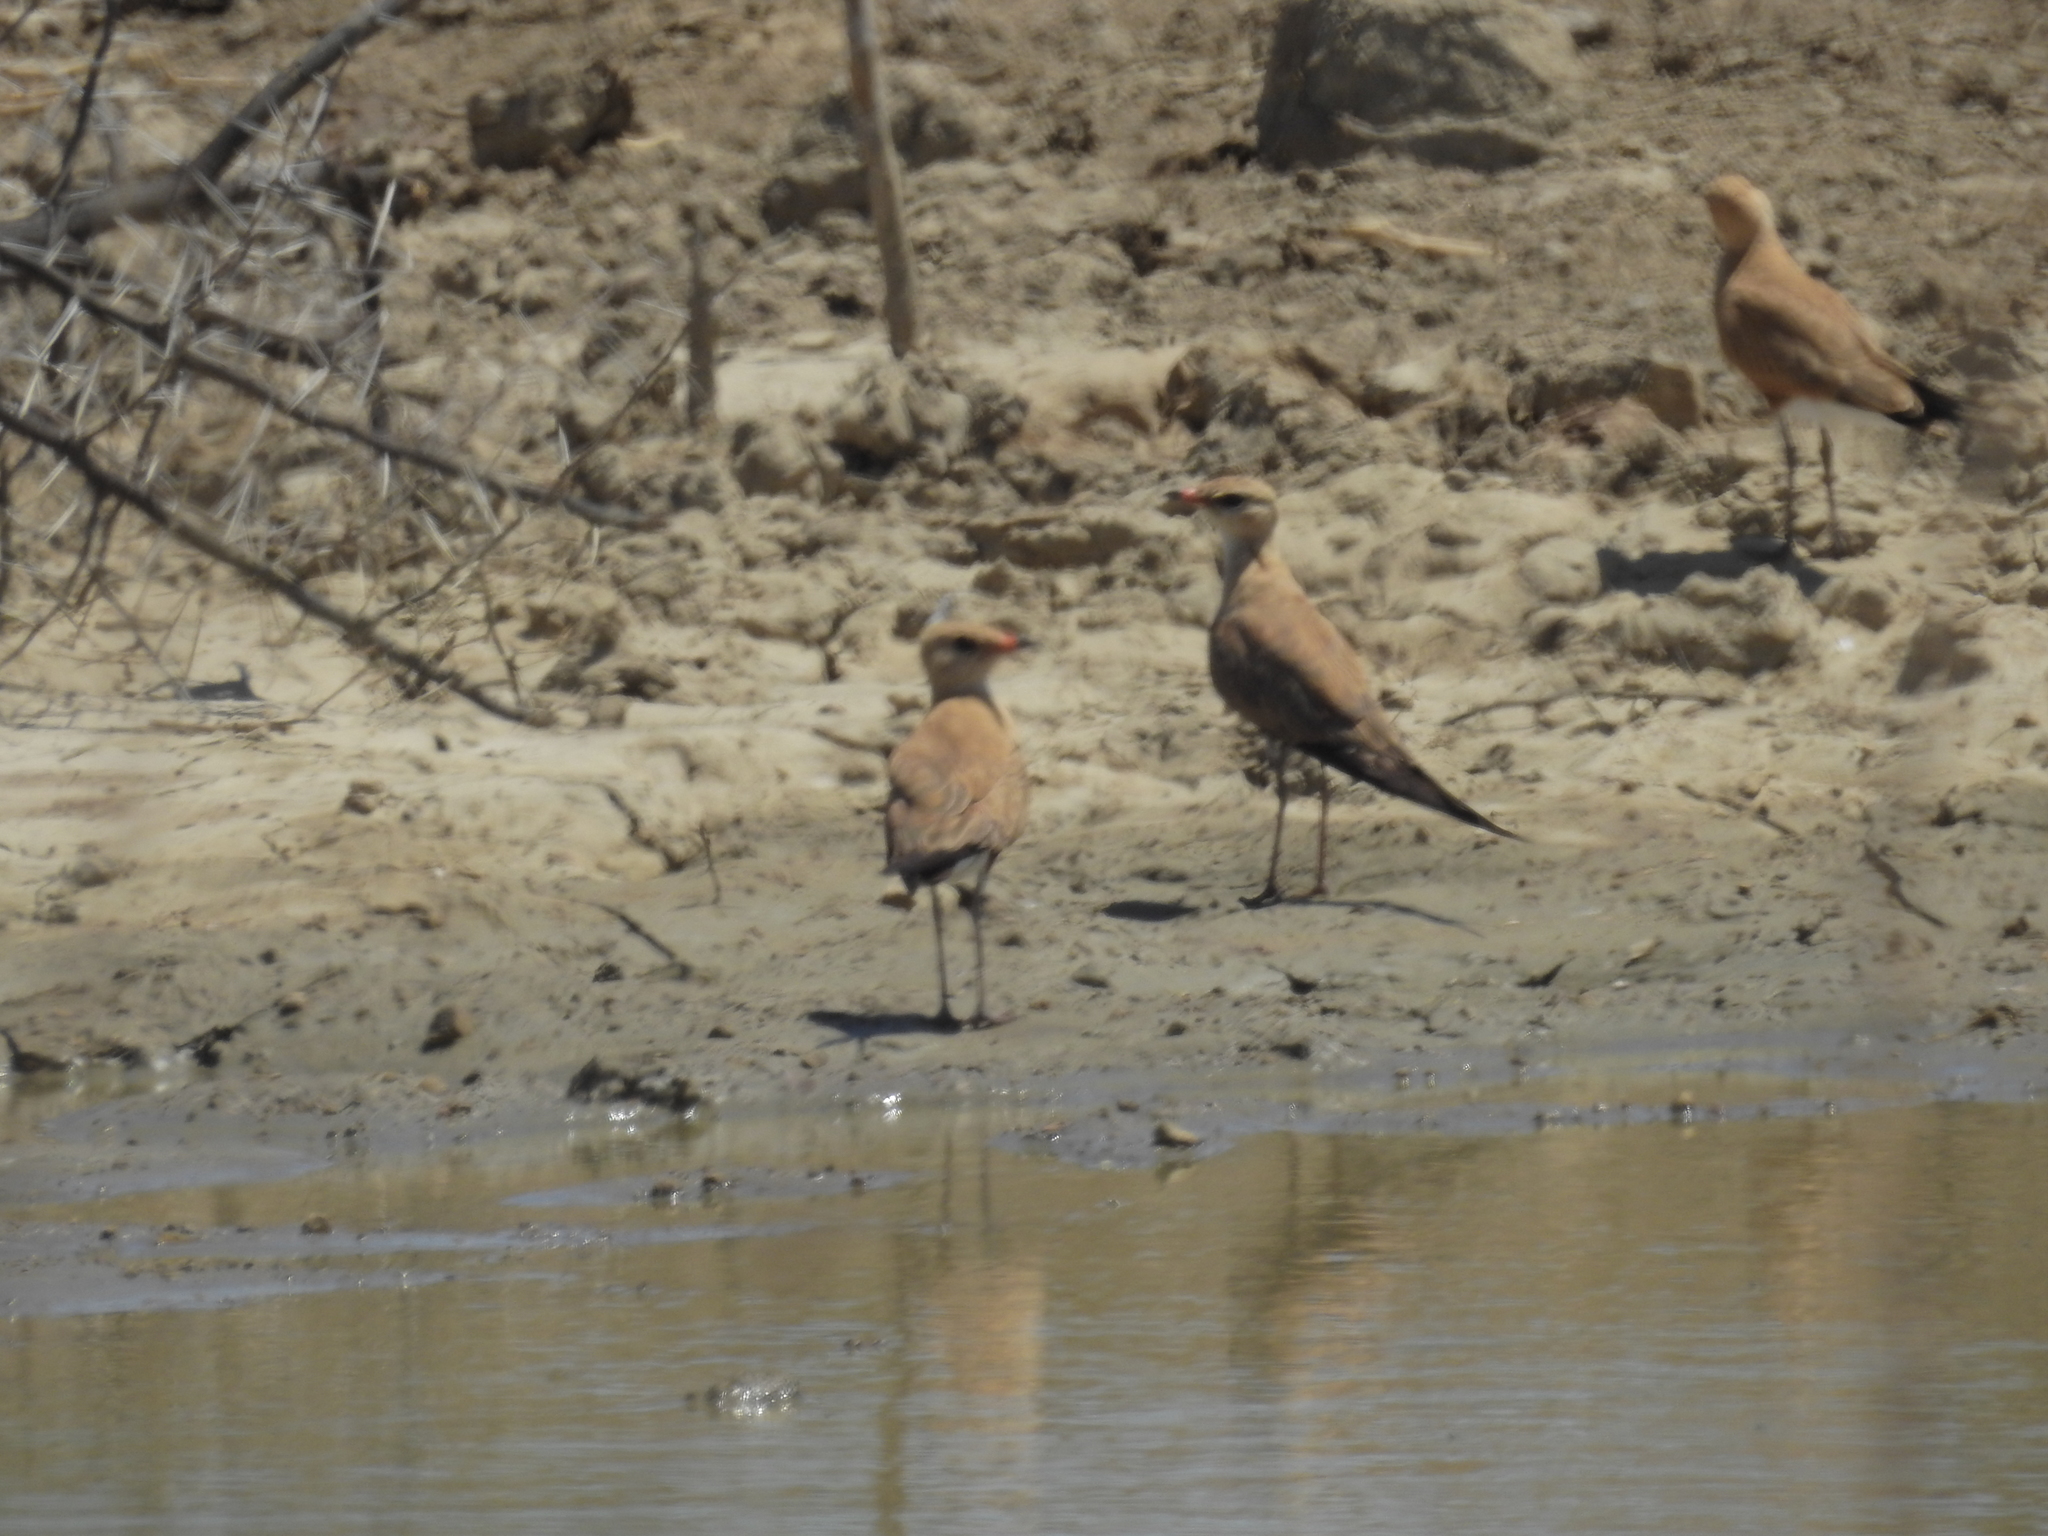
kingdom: Animalia
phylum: Chordata
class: Aves
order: Charadriiformes
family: Glareolidae
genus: Stiltia
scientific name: Stiltia isabella
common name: Australian pratincole
